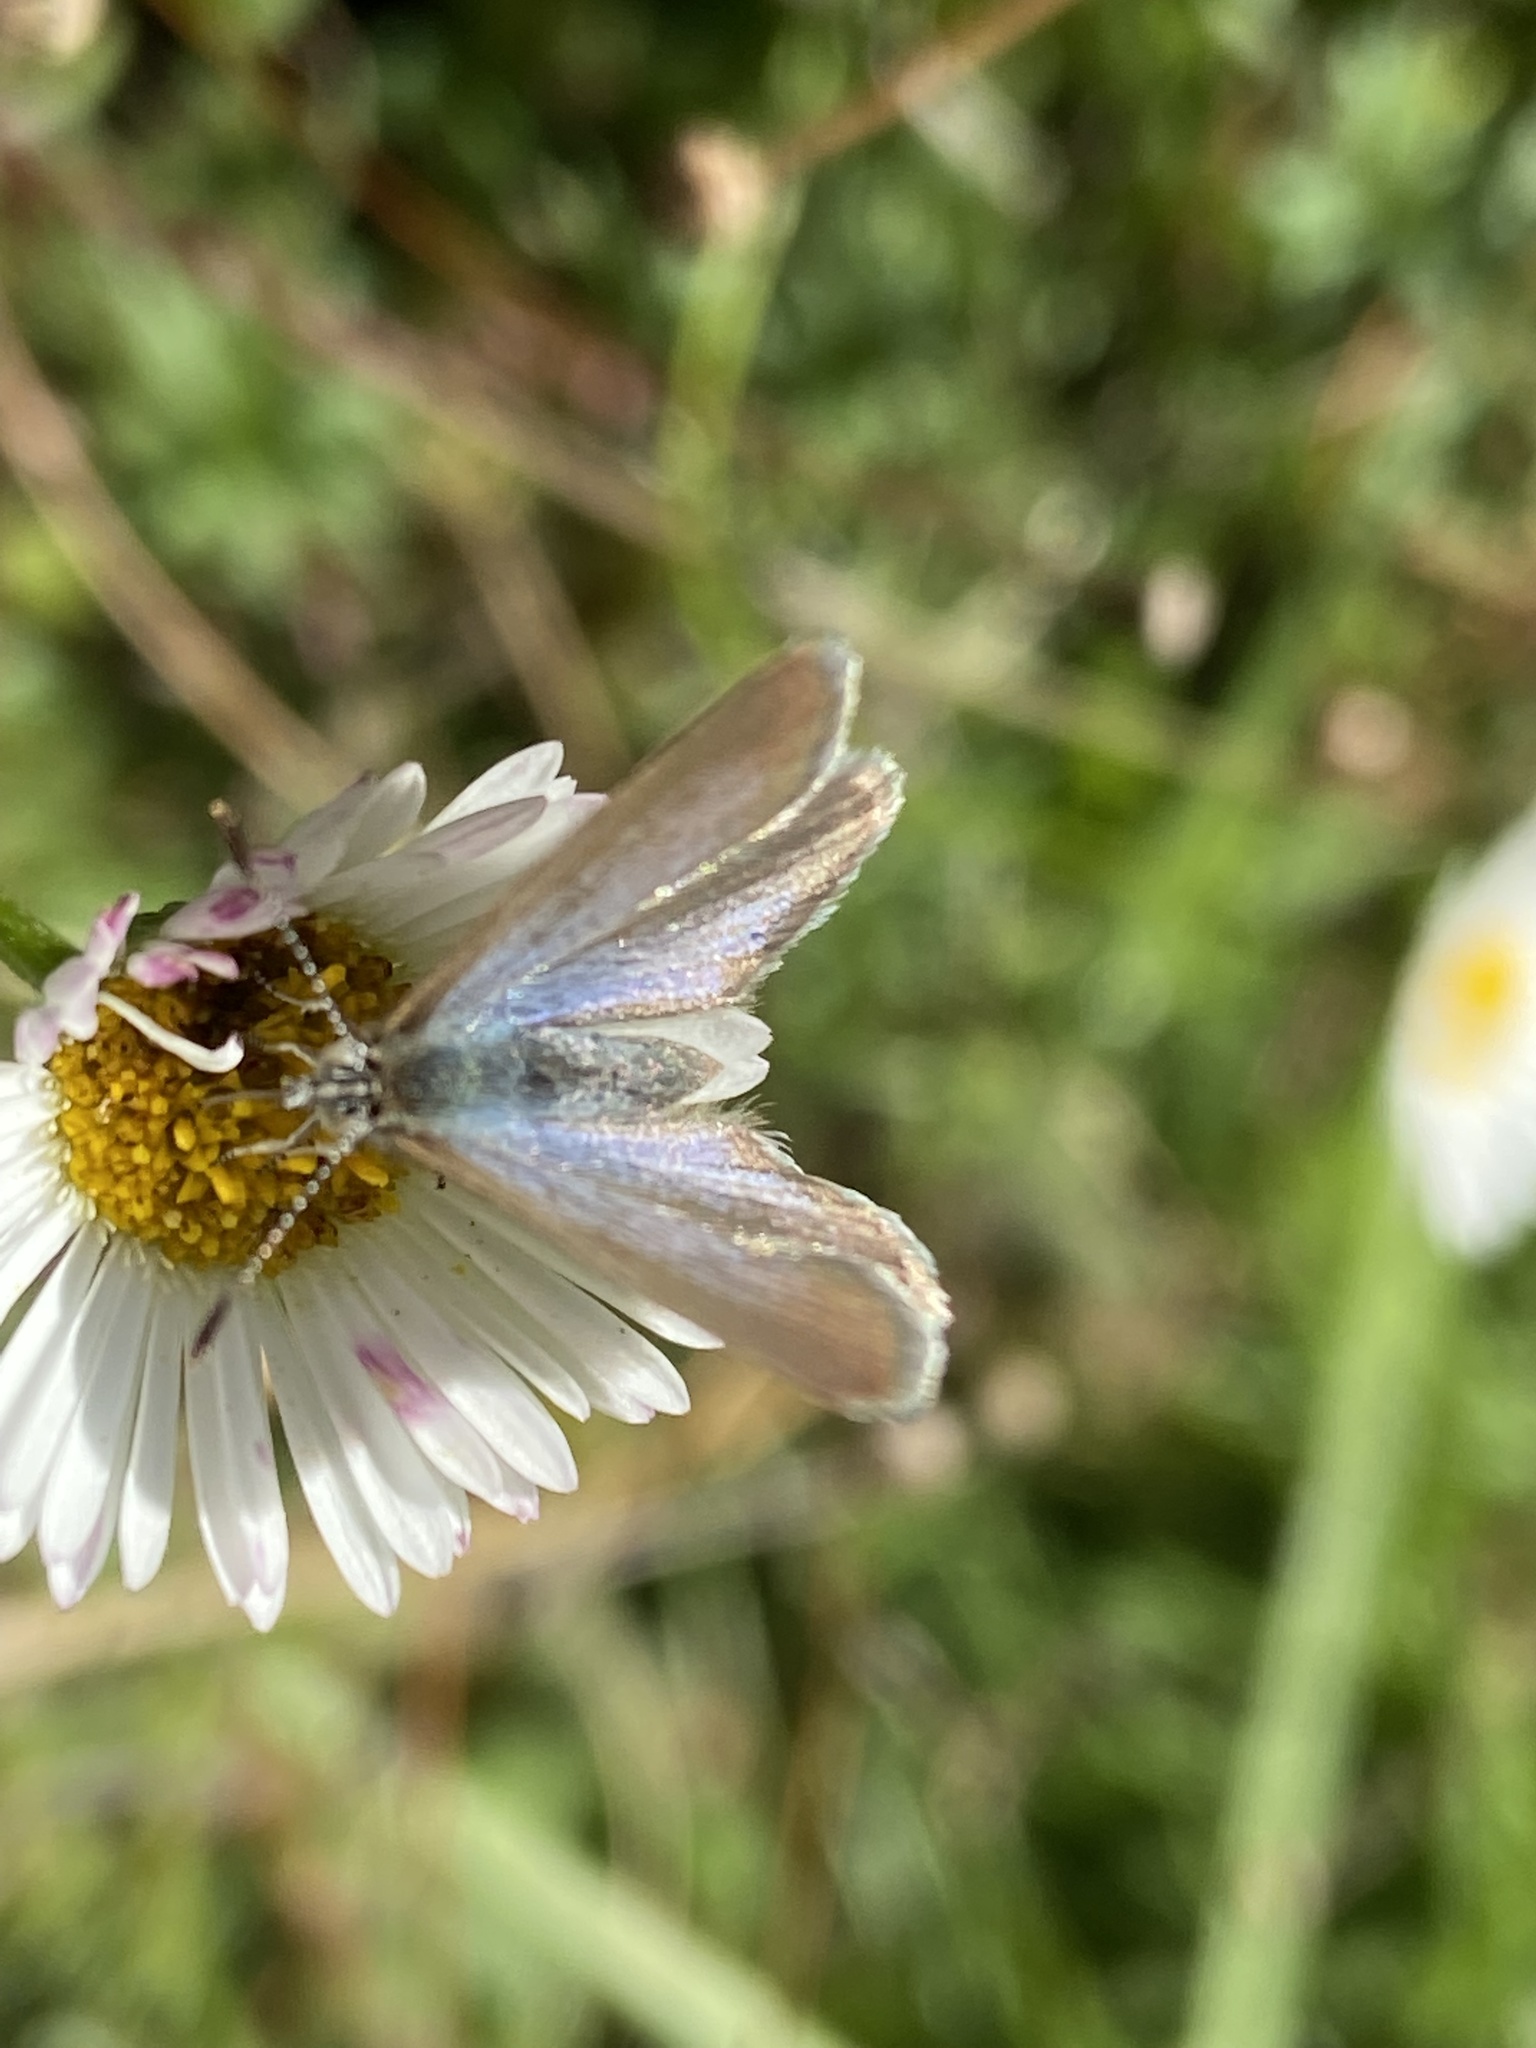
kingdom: Animalia
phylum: Arthropoda
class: Insecta
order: Lepidoptera
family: Lycaenidae
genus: Zizina
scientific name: Zizina labradus
